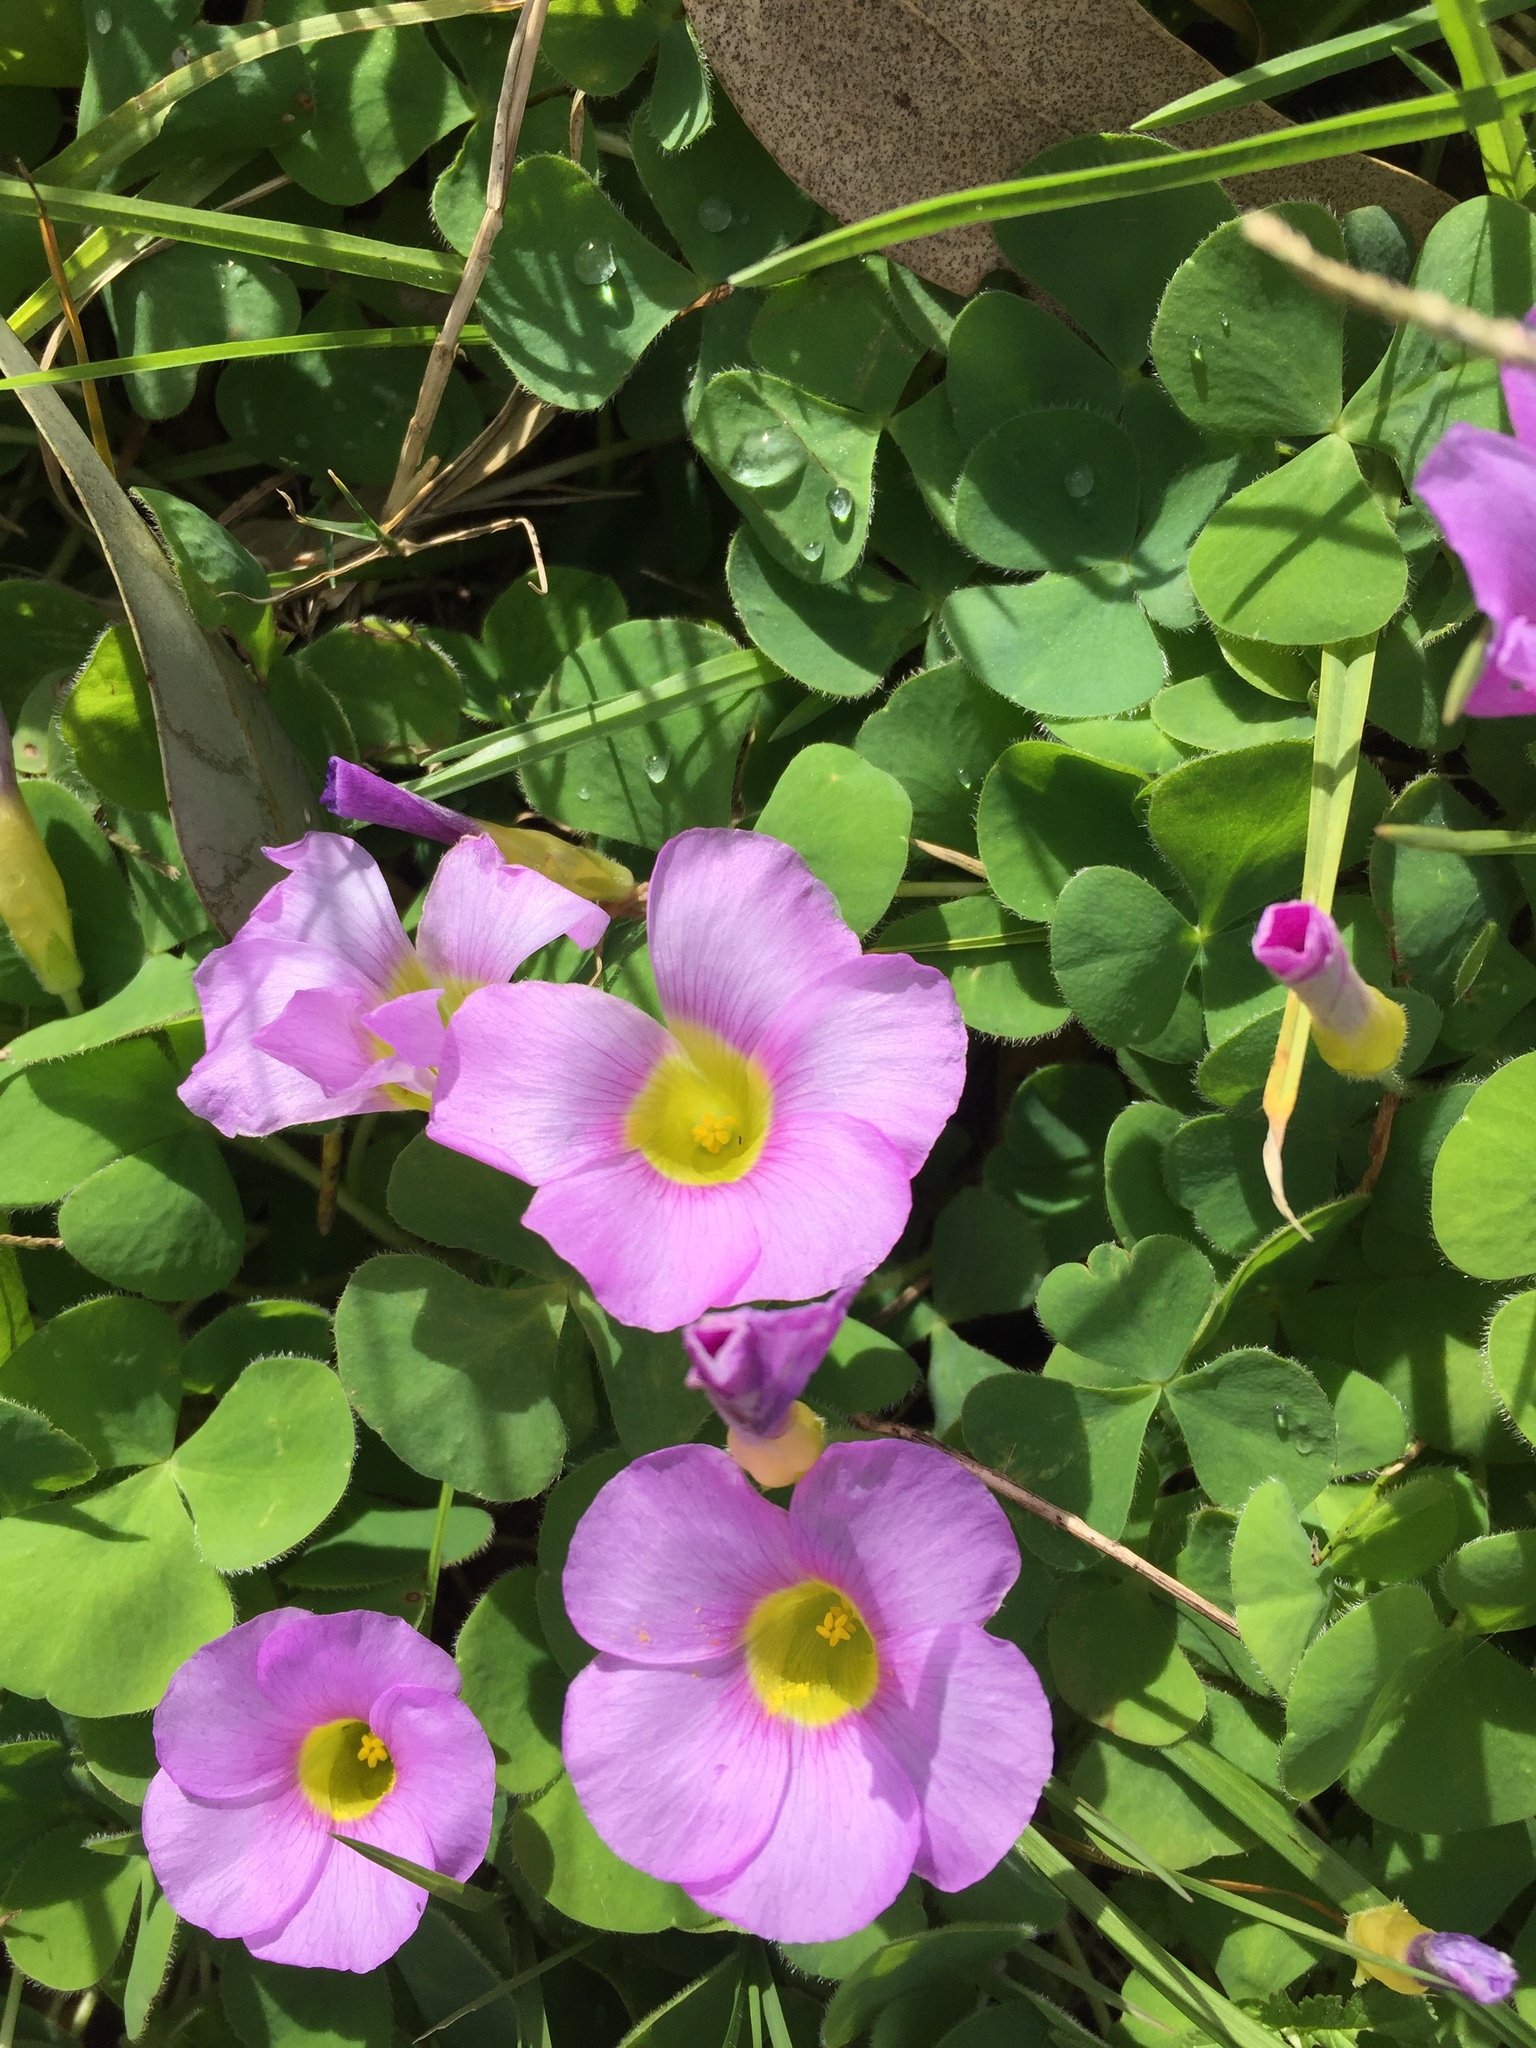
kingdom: Plantae
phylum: Tracheophyta
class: Magnoliopsida
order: Oxalidales
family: Oxalidaceae
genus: Oxalis
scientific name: Oxalis purpurea
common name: Purple woodsorrel
